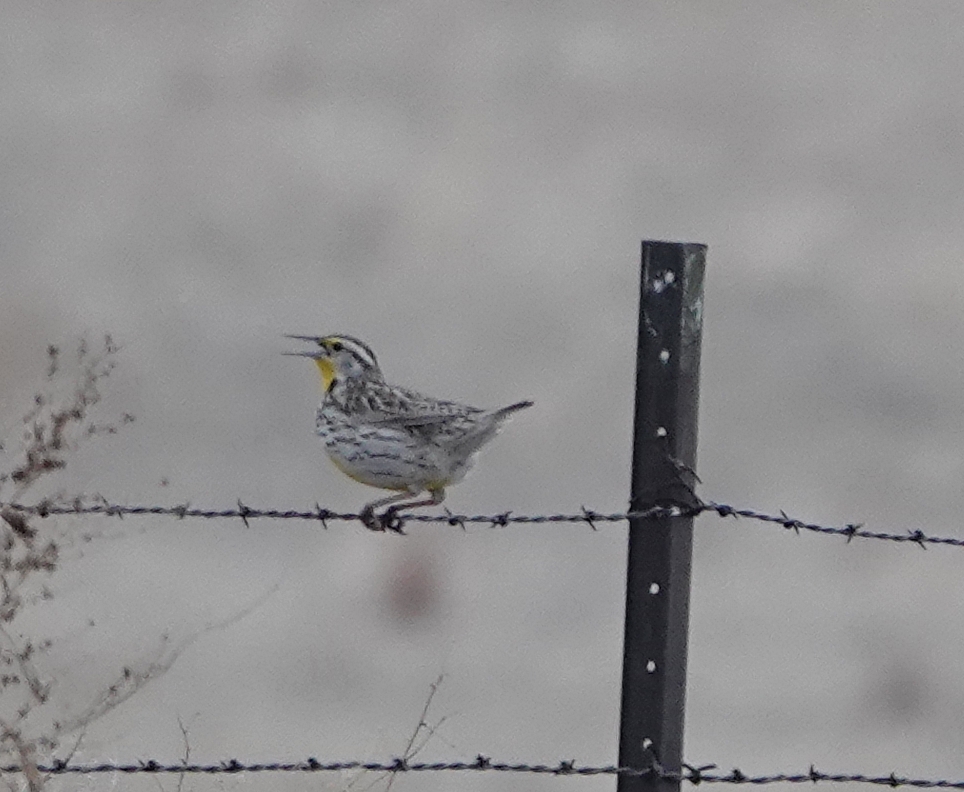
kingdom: Animalia
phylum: Chordata
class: Aves
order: Passeriformes
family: Icteridae
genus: Sturnella
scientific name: Sturnella neglecta
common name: Western meadowlark
